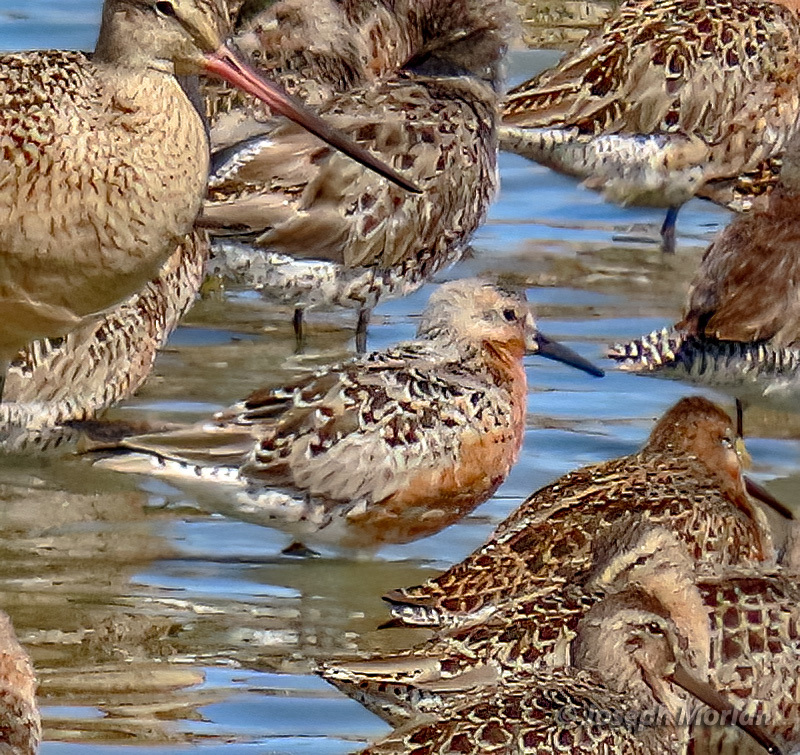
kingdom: Animalia
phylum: Chordata
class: Aves
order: Charadriiformes
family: Scolopacidae
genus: Calidris
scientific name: Calidris canutus
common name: Red knot
